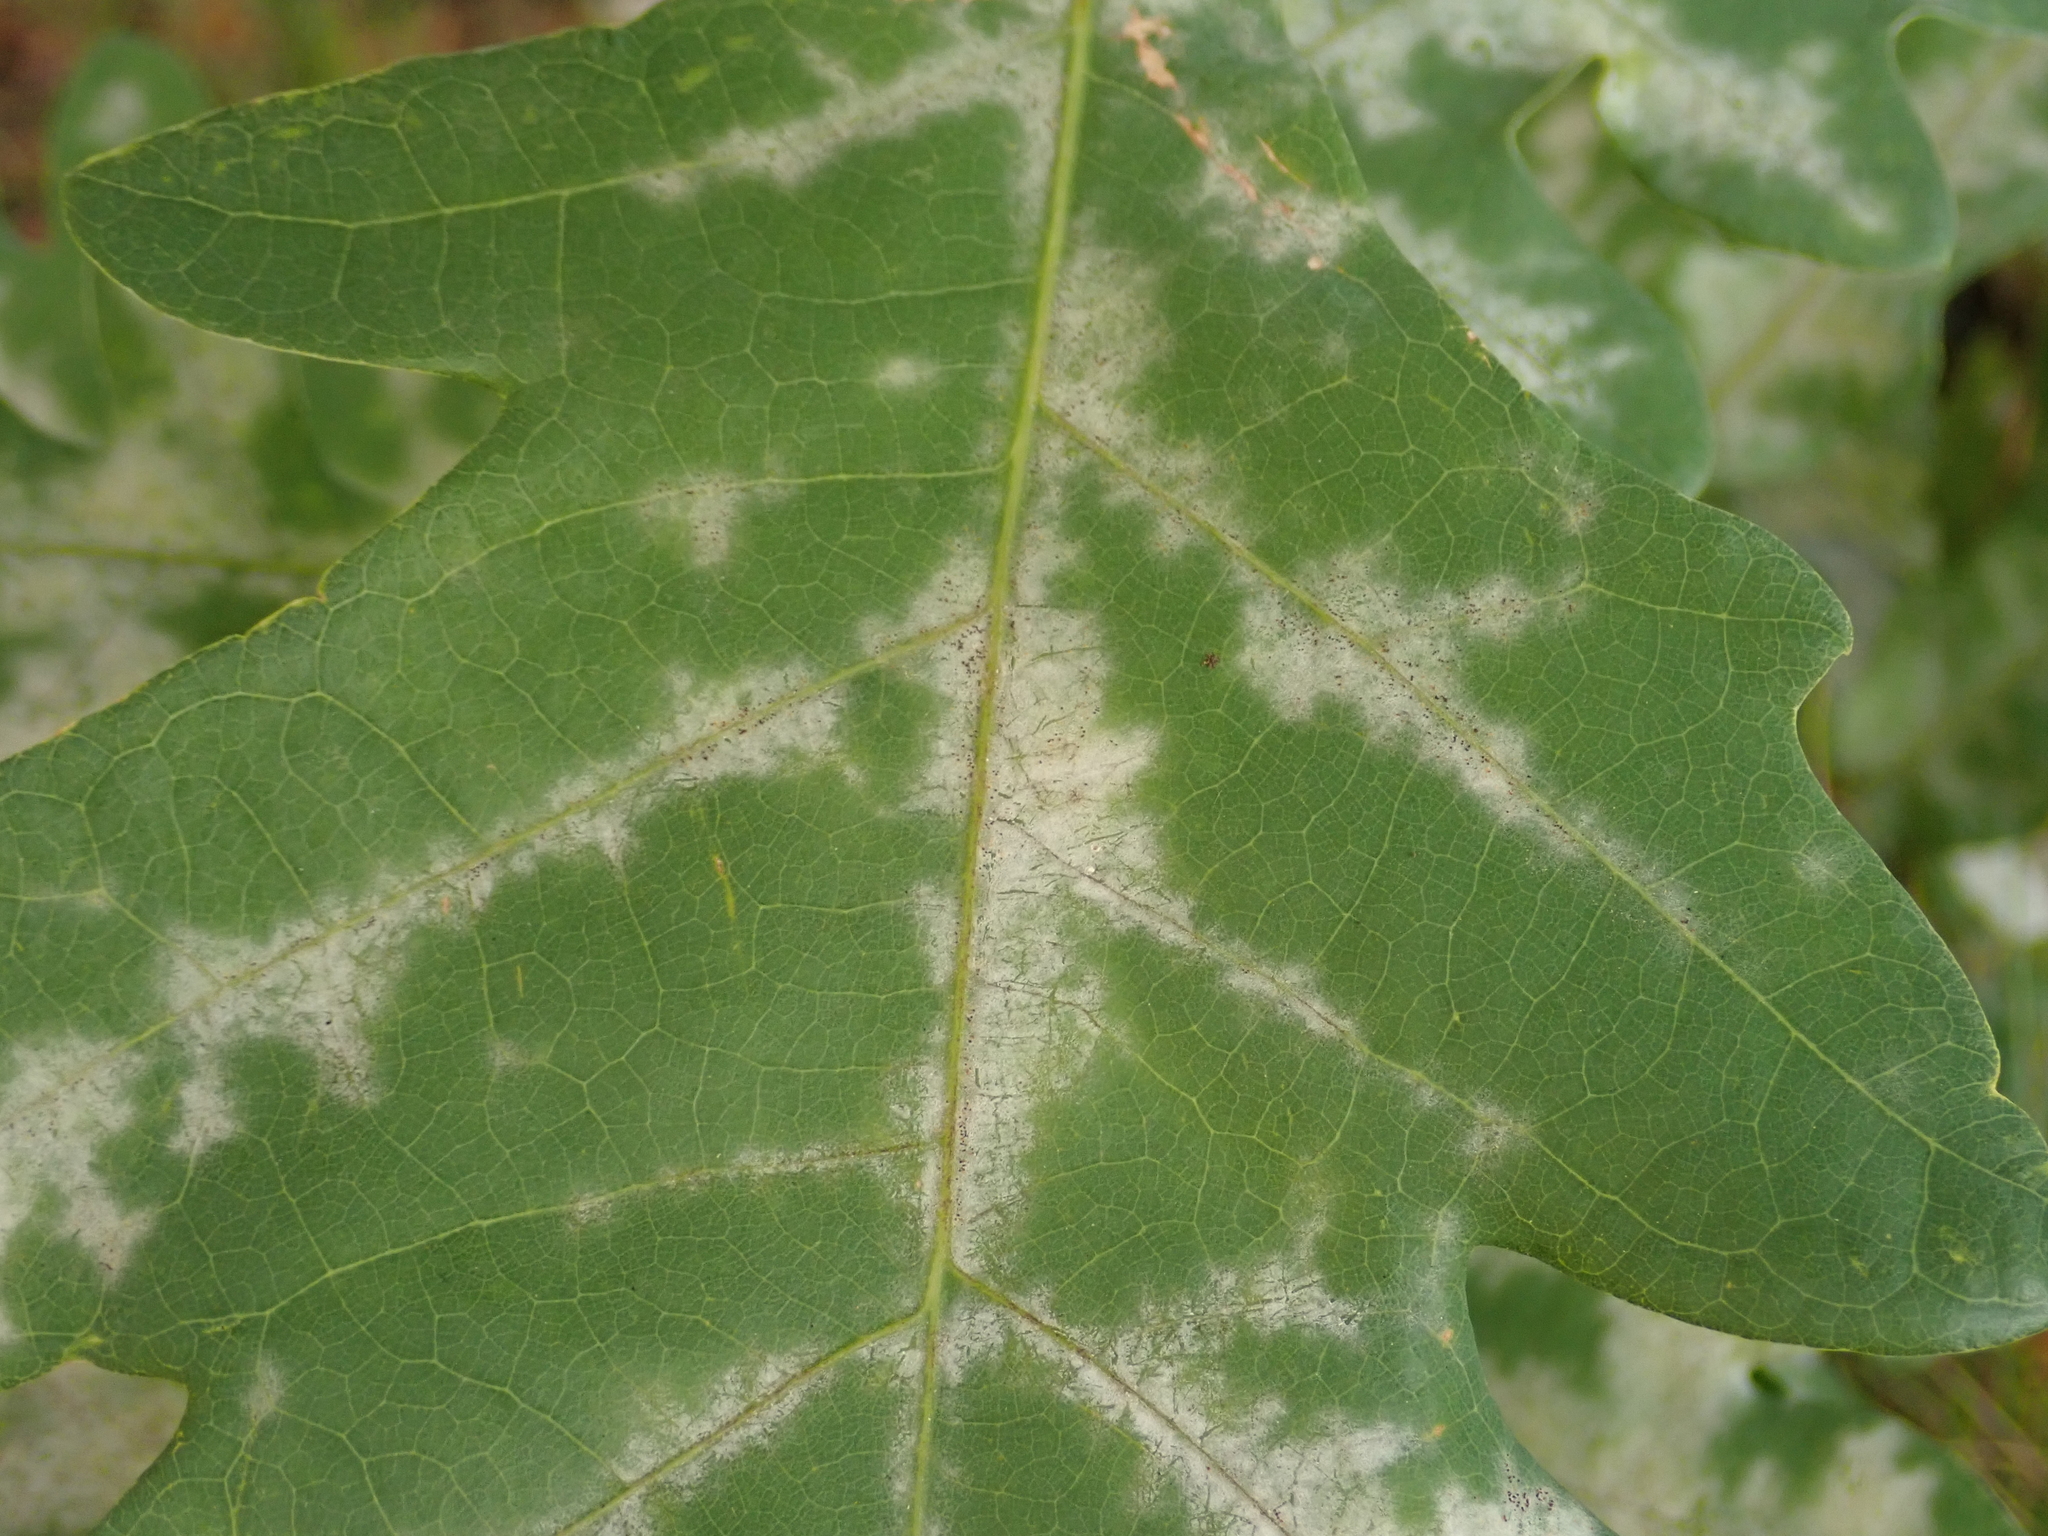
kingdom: Fungi
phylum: Ascomycota
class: Leotiomycetes
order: Helotiales
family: Erysiphaceae
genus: Erysiphe
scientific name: Erysiphe
